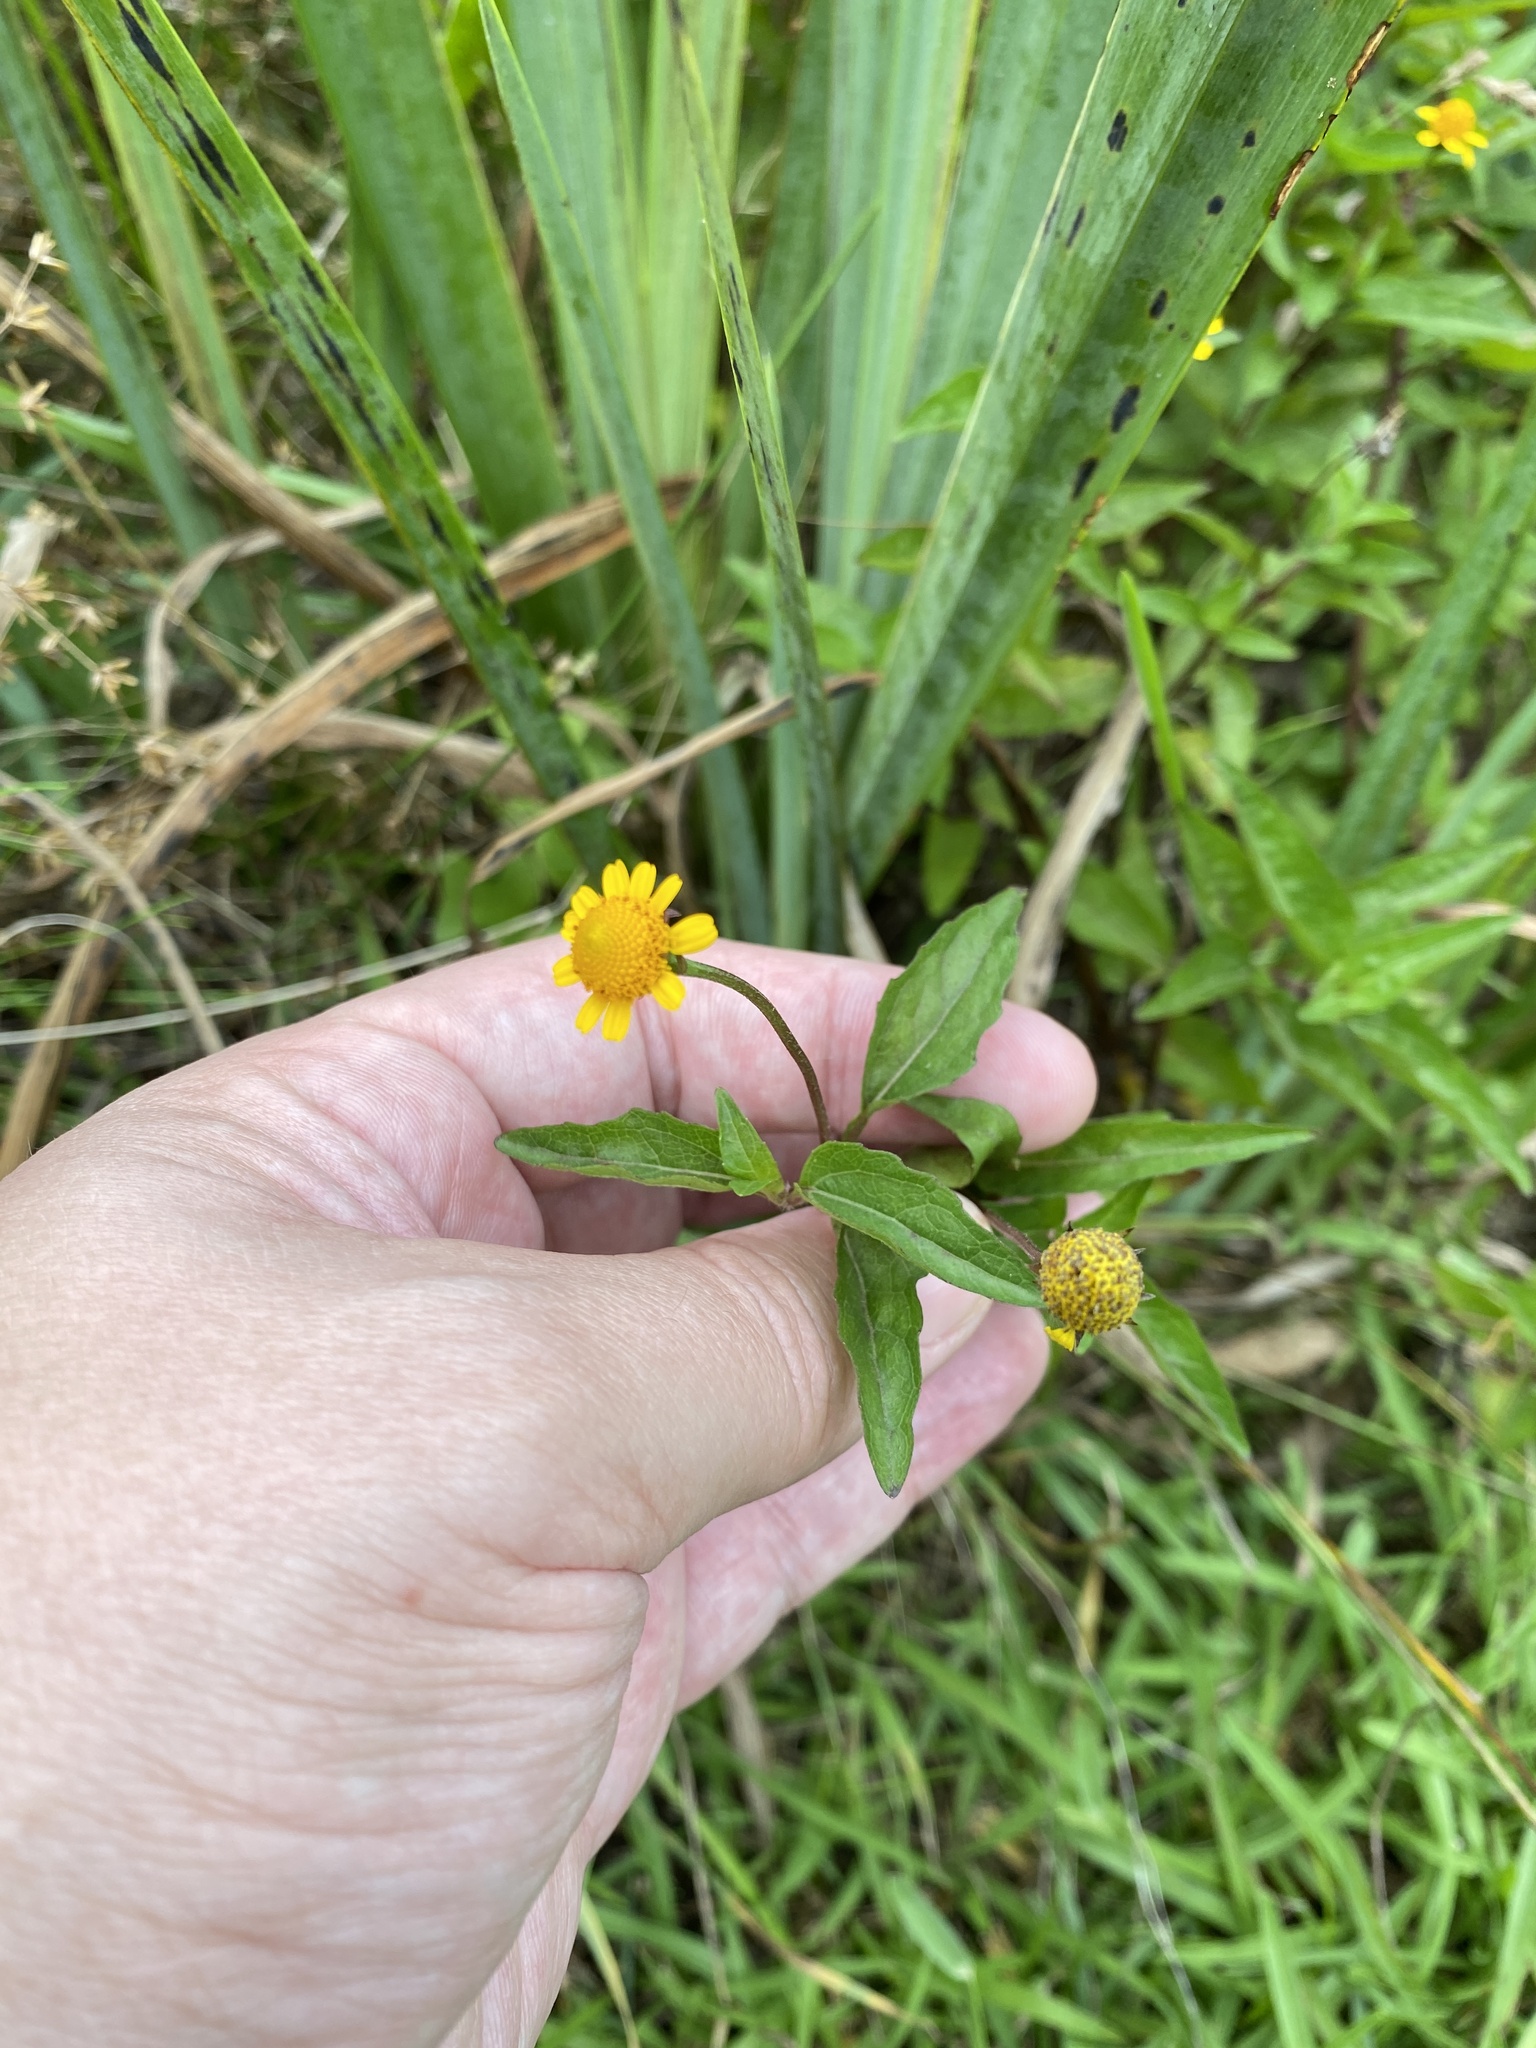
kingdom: Plantae
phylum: Tracheophyta
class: Magnoliopsida
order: Asterales
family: Asteraceae
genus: Acmella
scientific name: Acmella repens
